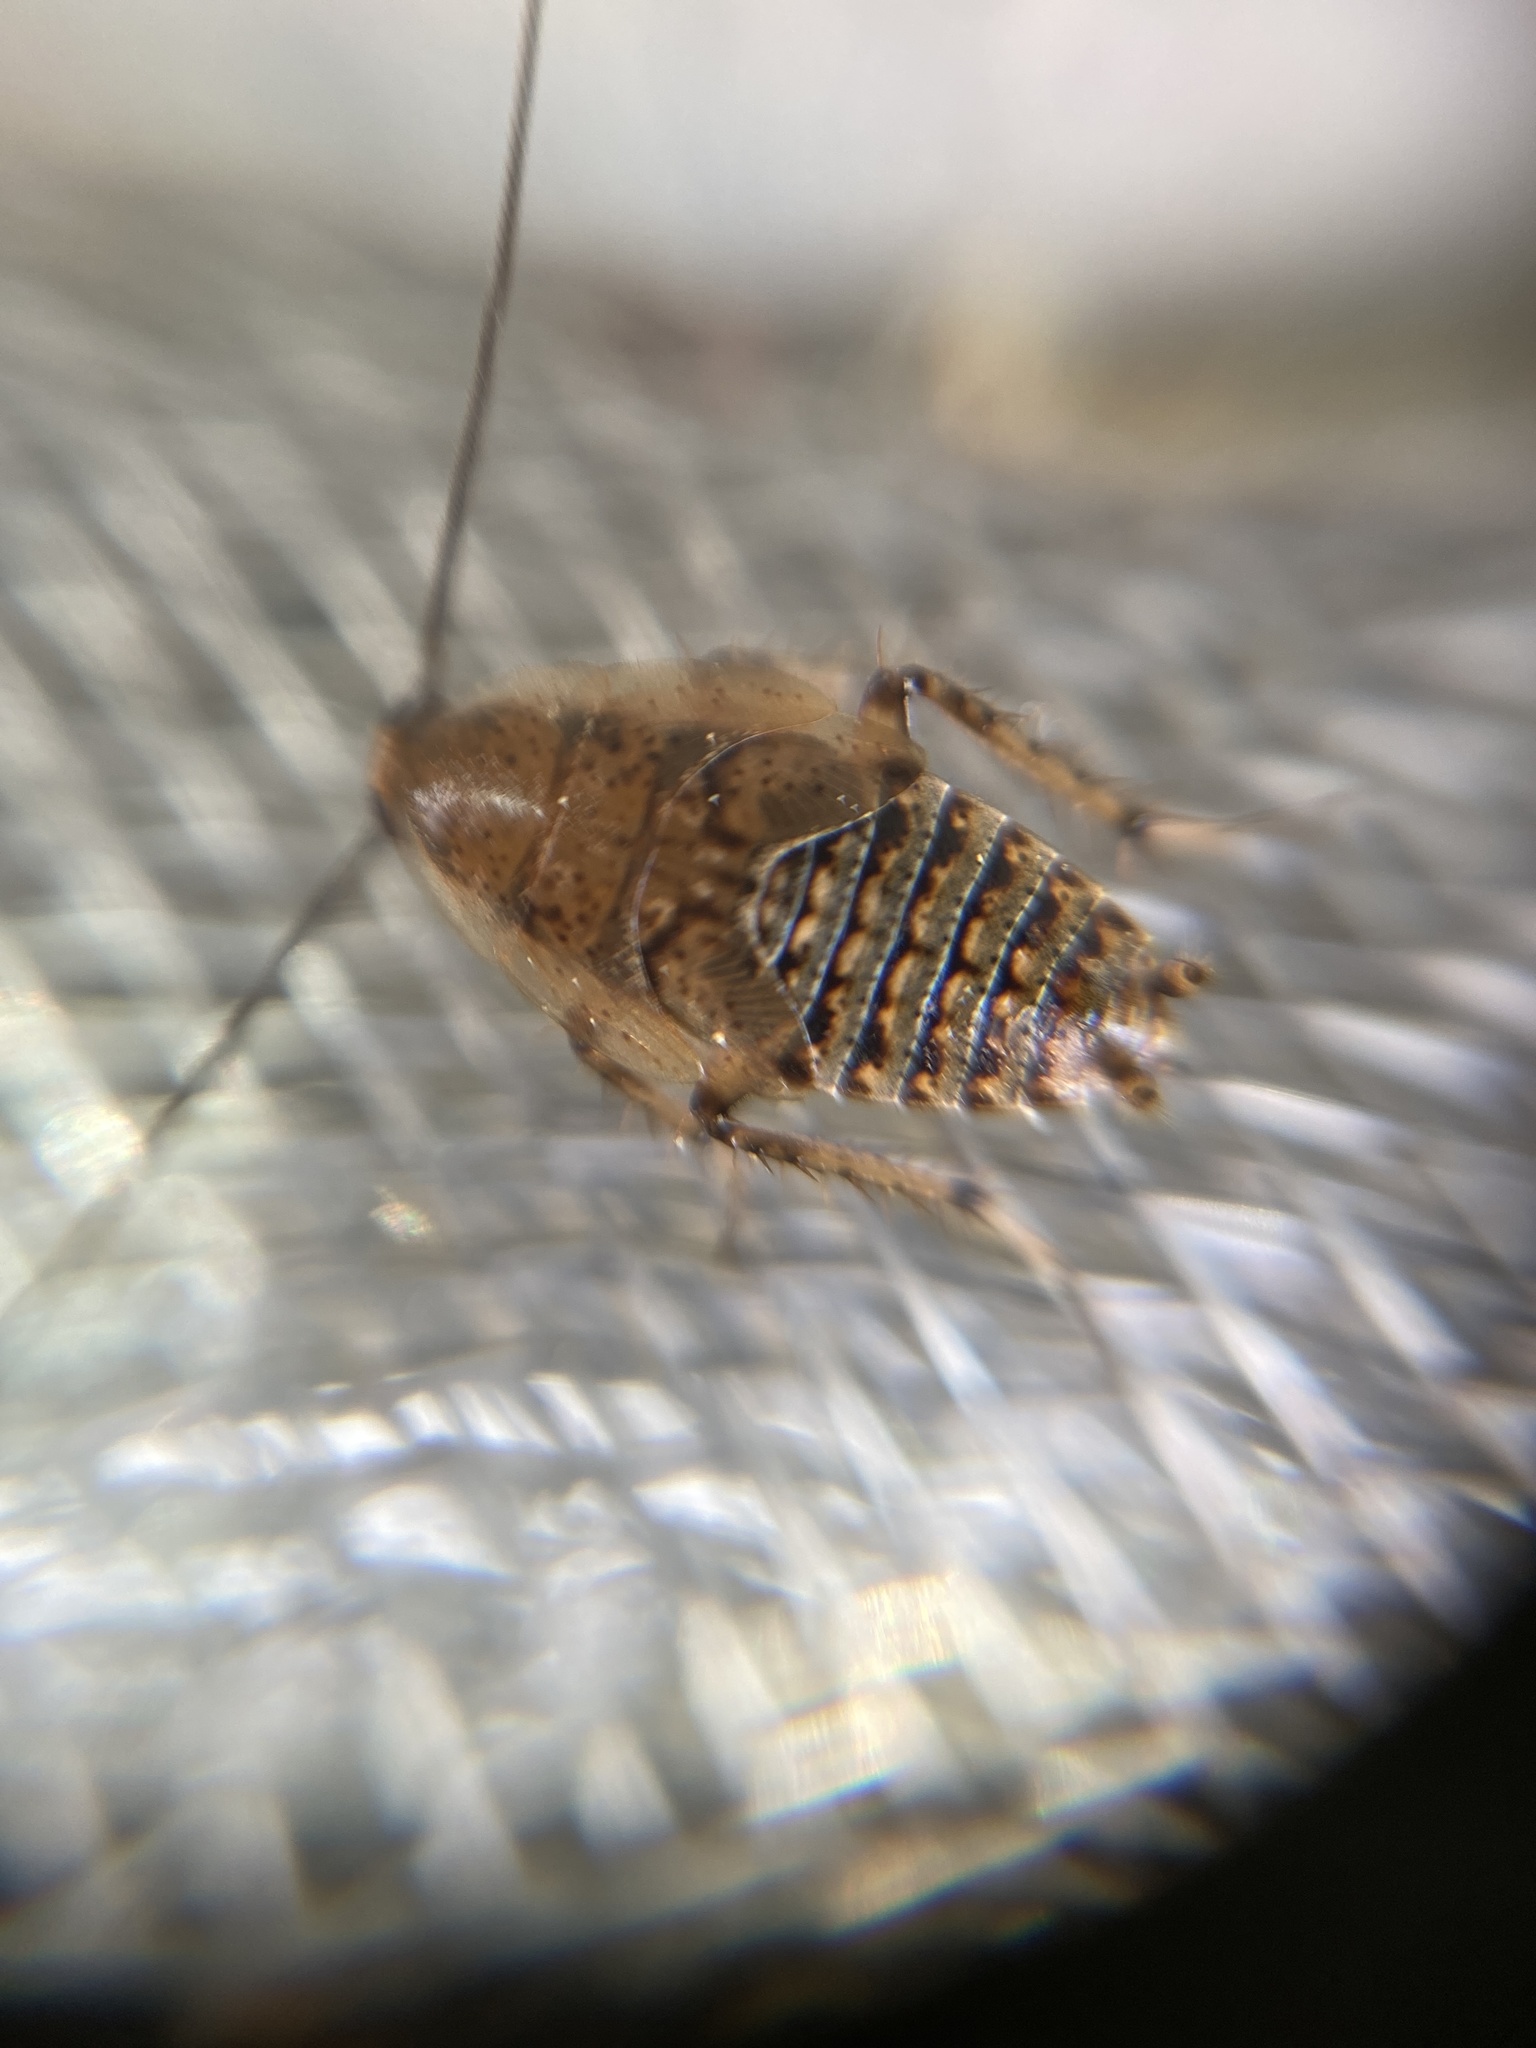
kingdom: Animalia
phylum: Arthropoda
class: Insecta
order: Blattodea
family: Ectobiidae
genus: Ectobius
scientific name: Ectobius lapponicus
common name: Dusky cockroach
